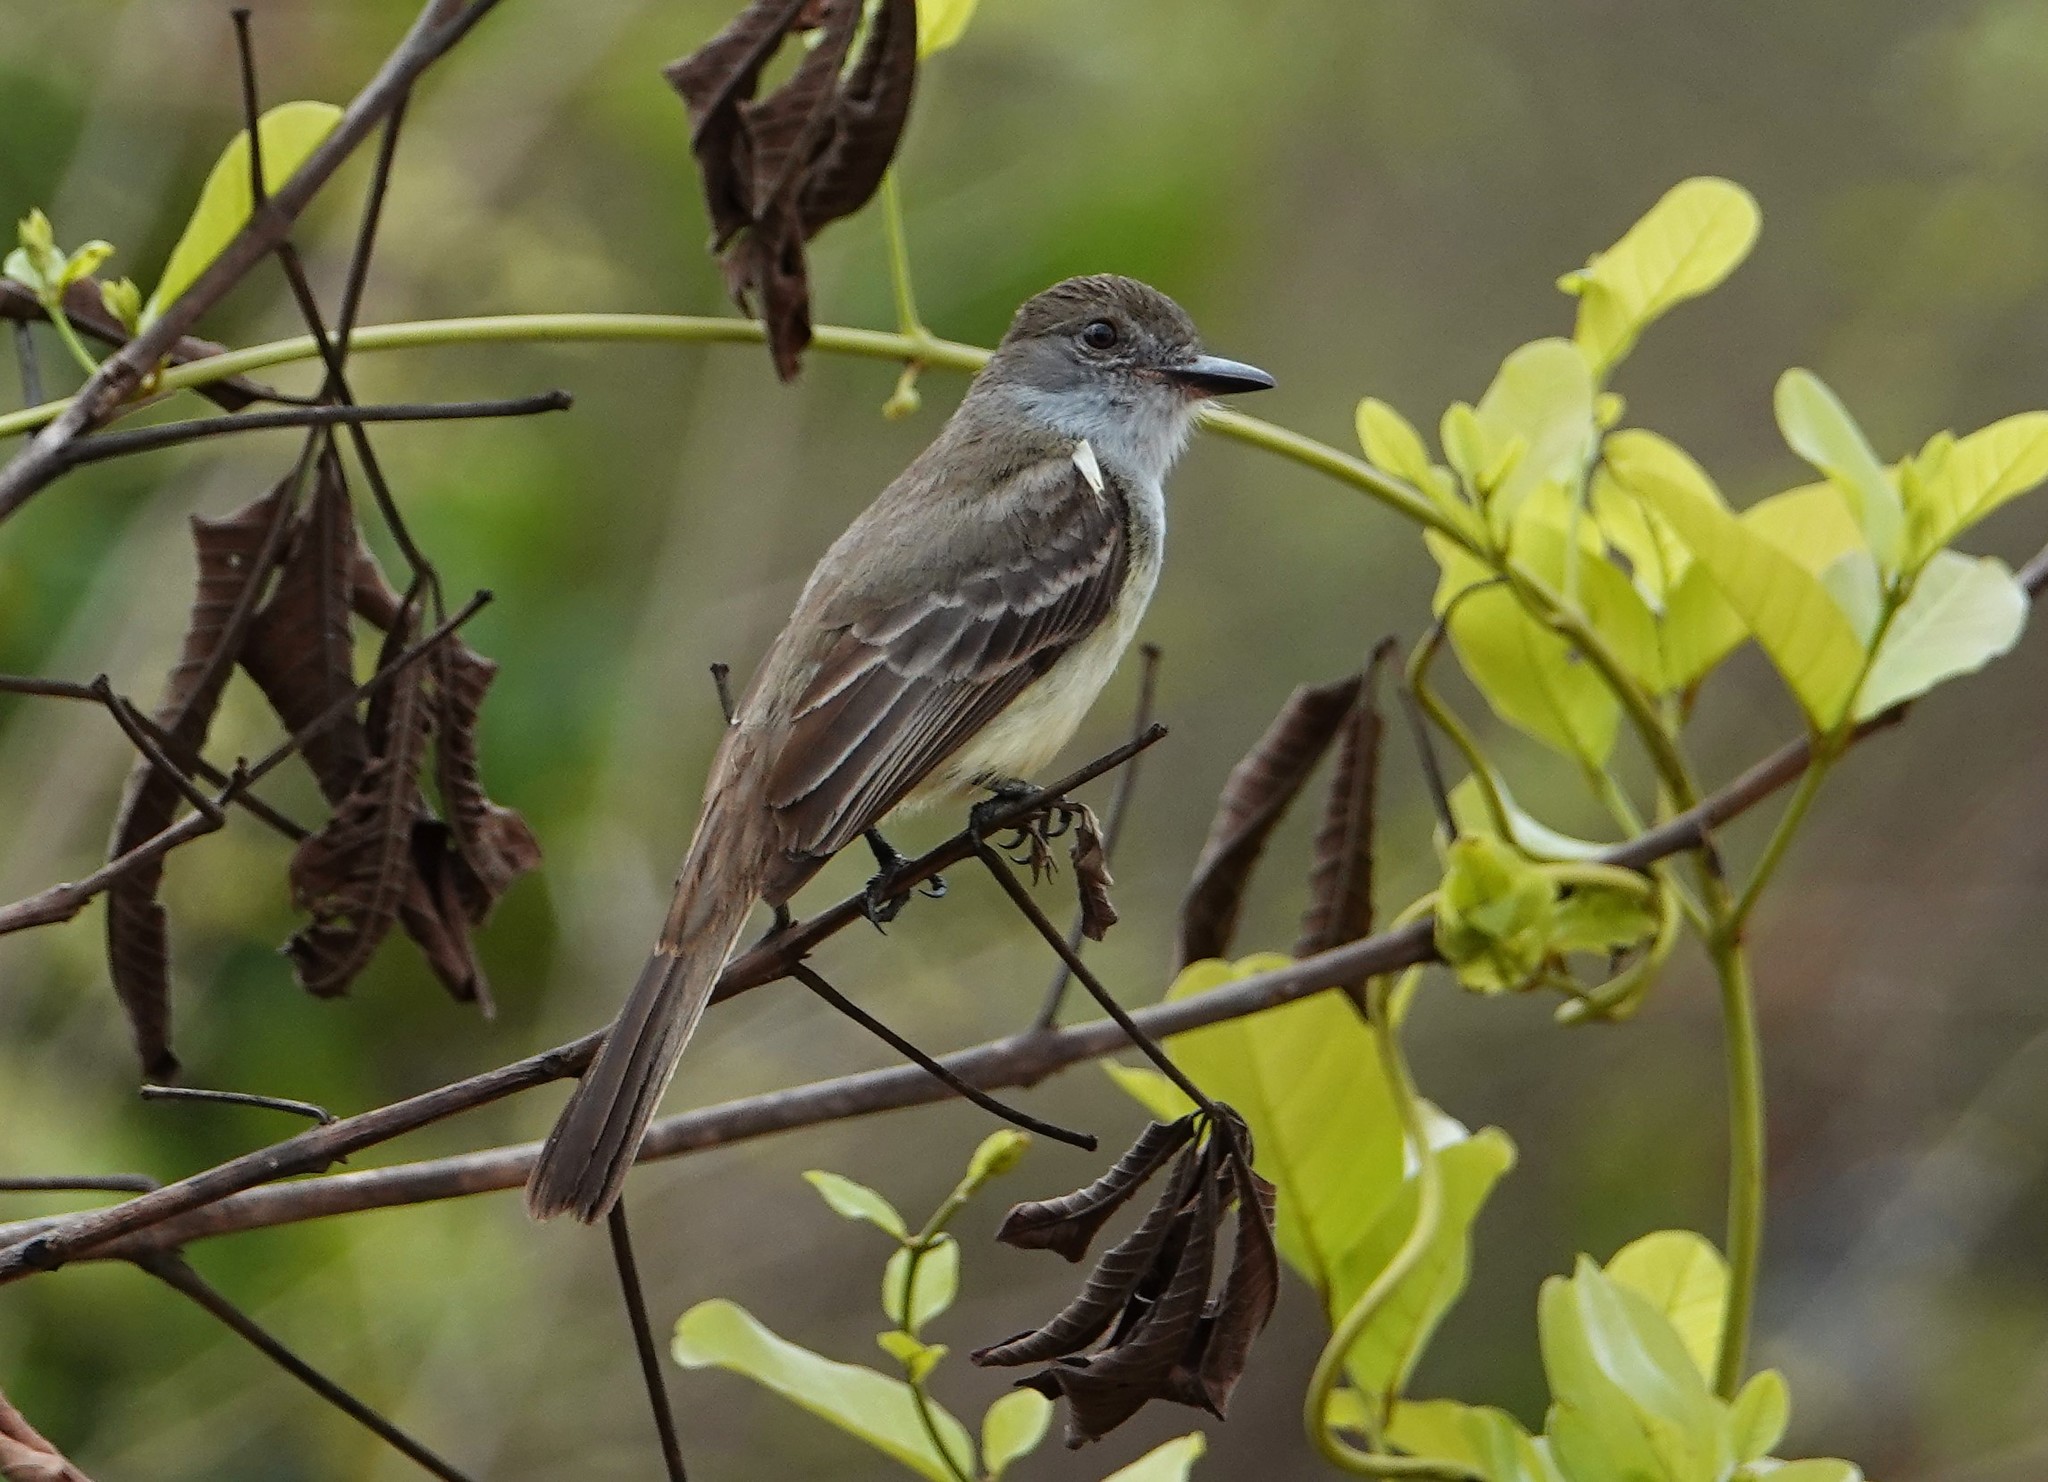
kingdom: Animalia
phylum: Chordata
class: Aves
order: Passeriformes
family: Tyrannidae
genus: Myiarchus
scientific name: Myiarchus ferox
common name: Short-crested flycatcher
